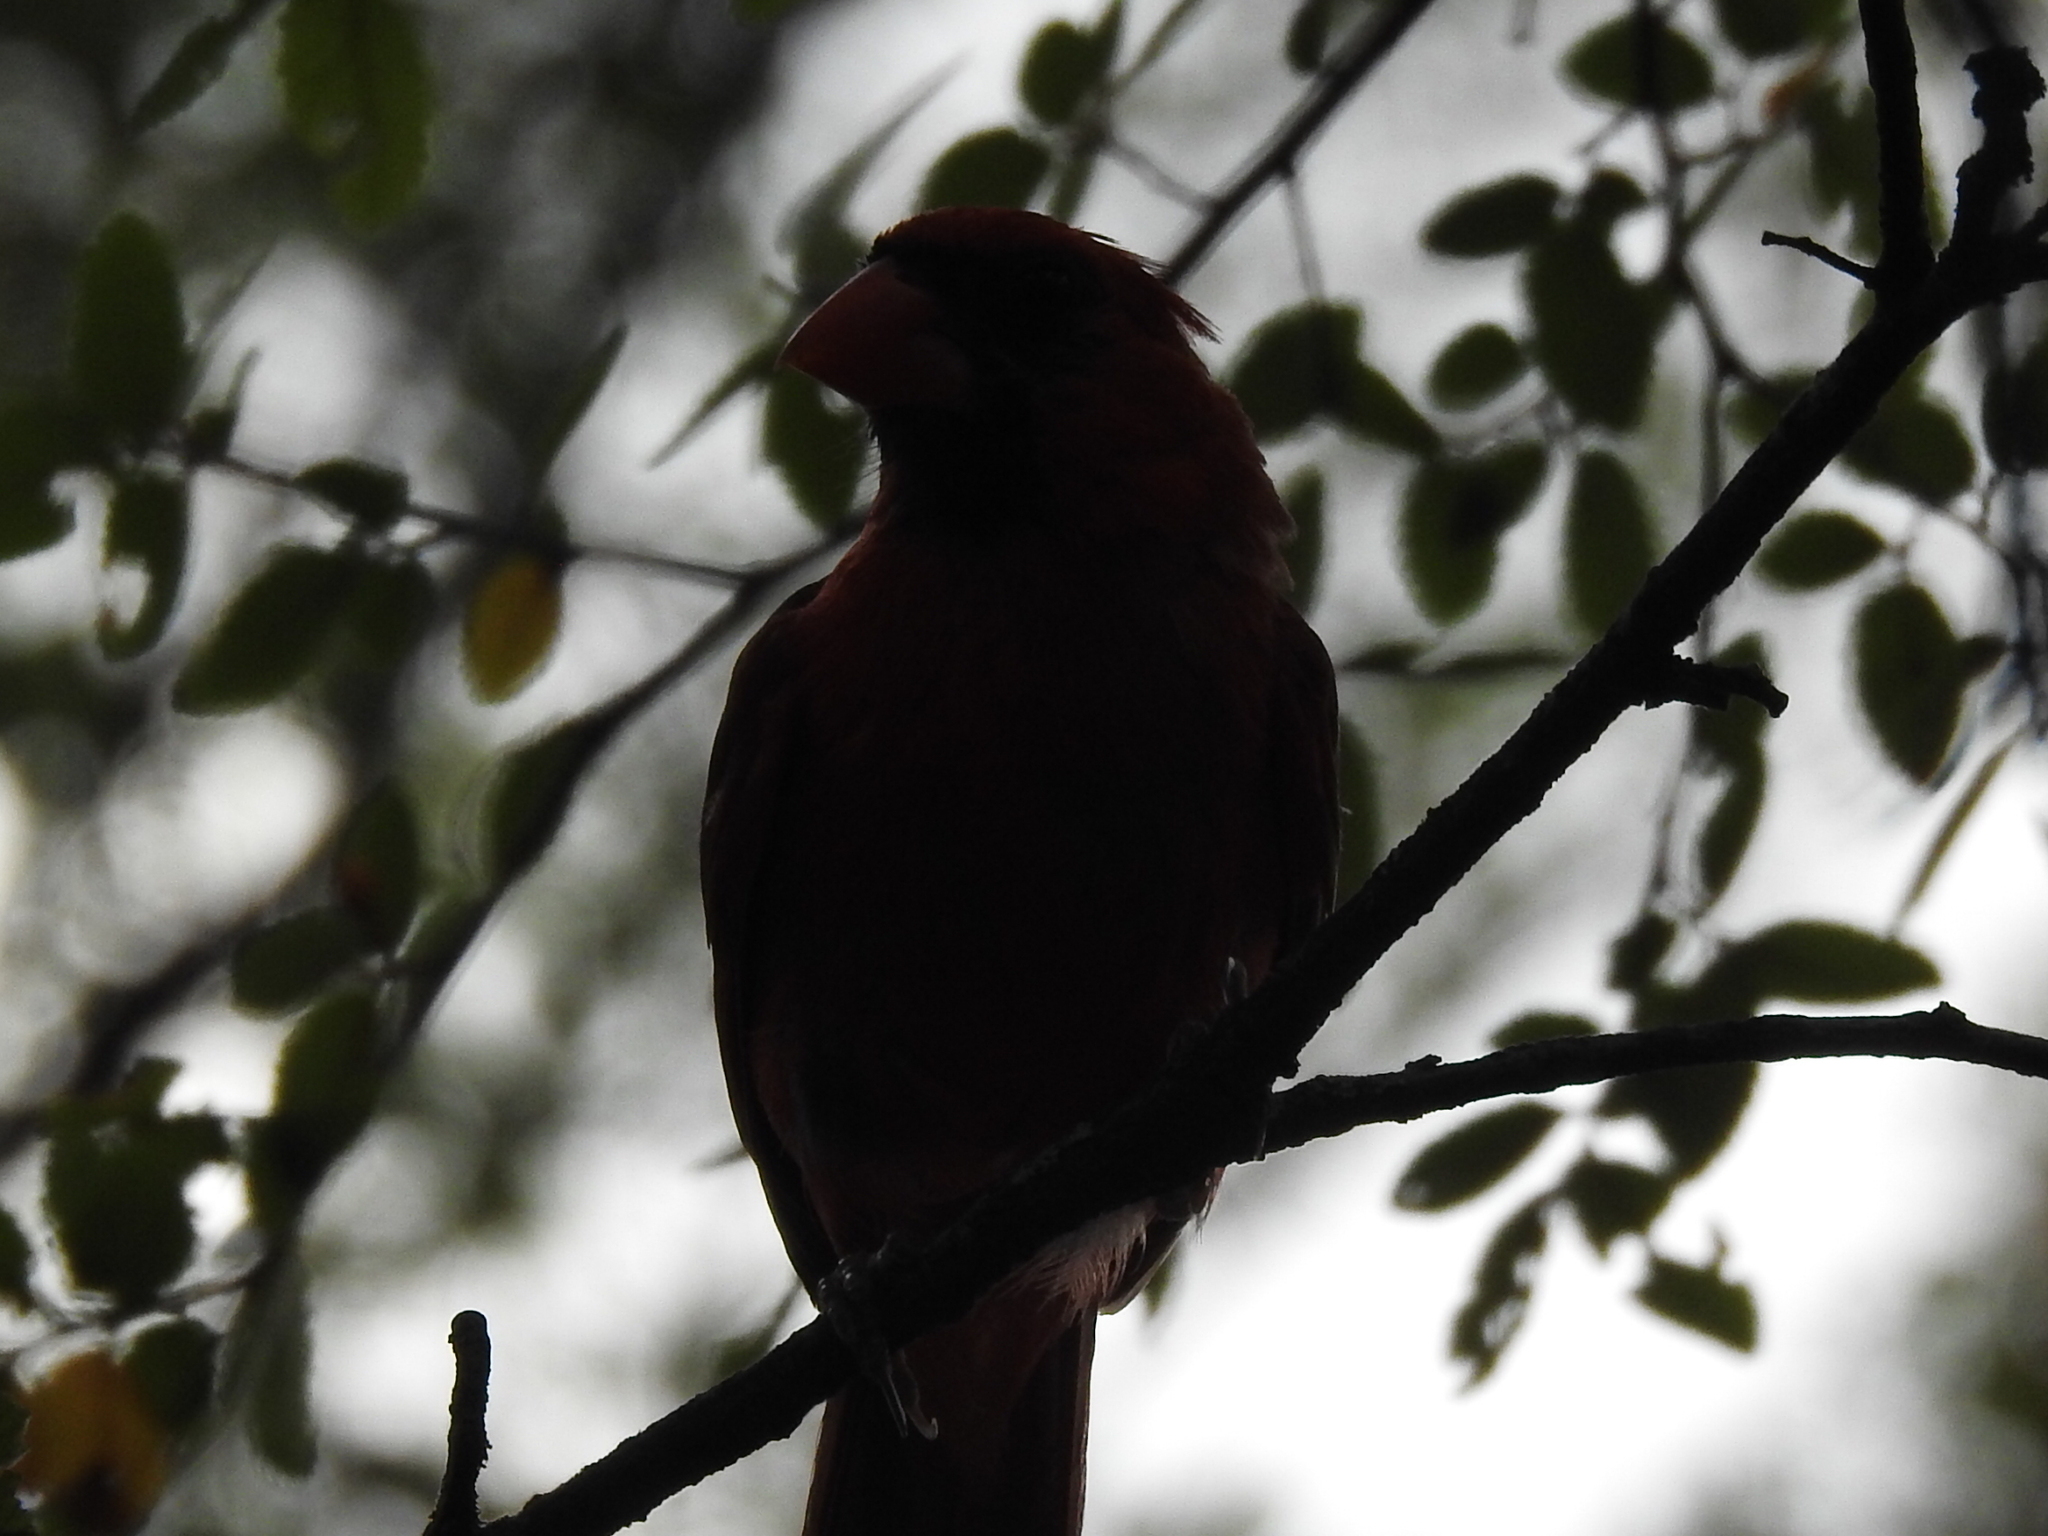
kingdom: Animalia
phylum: Chordata
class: Aves
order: Passeriformes
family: Cardinalidae
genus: Cardinalis
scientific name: Cardinalis cardinalis
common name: Northern cardinal
